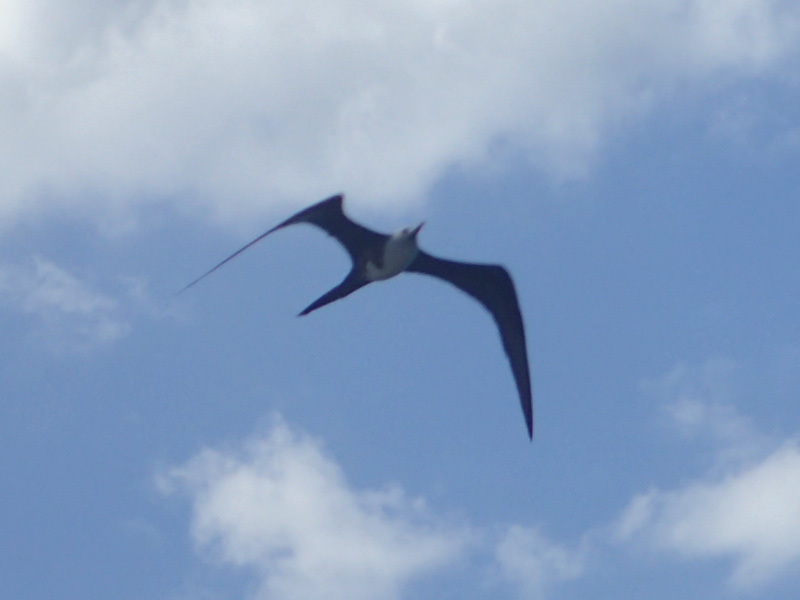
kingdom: Animalia
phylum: Chordata
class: Aves
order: Suliformes
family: Fregatidae
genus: Fregata
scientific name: Fregata magnificens
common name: Magnificent frigatebird
